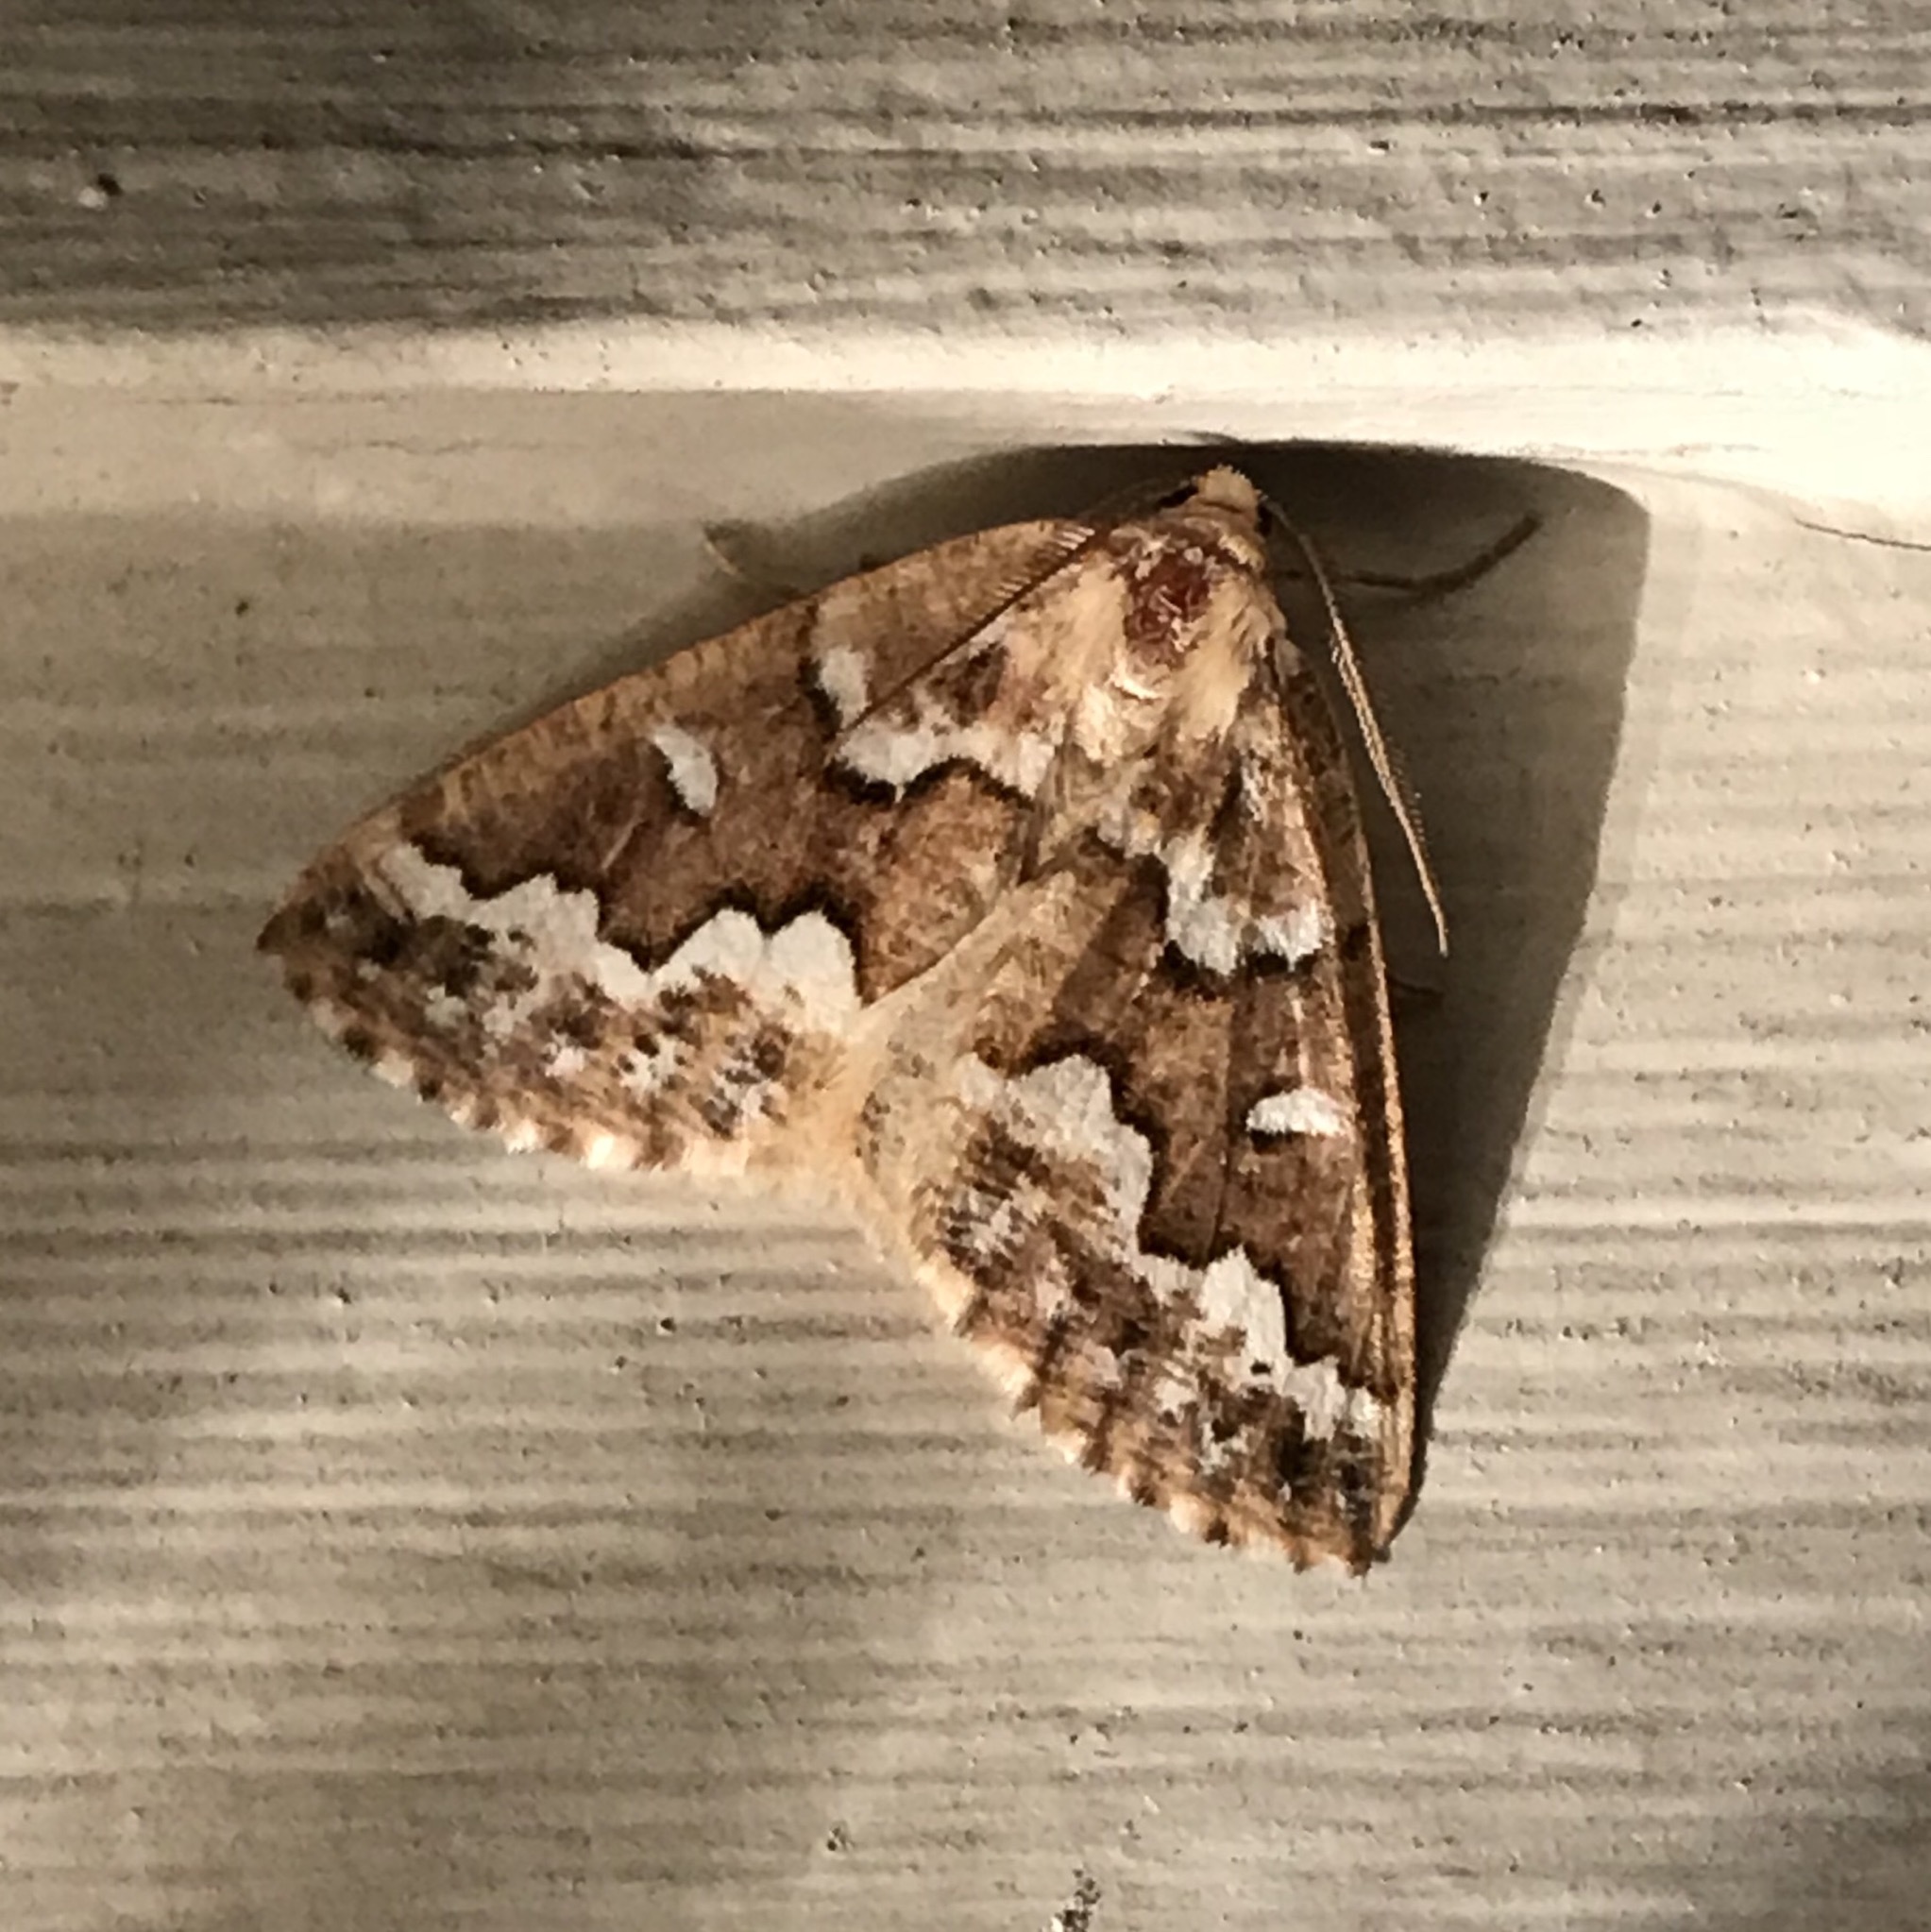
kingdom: Animalia
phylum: Arthropoda
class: Insecta
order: Lepidoptera
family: Geometridae
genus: Caripeta
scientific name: Caripeta divisata
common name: Gray spruce looper
